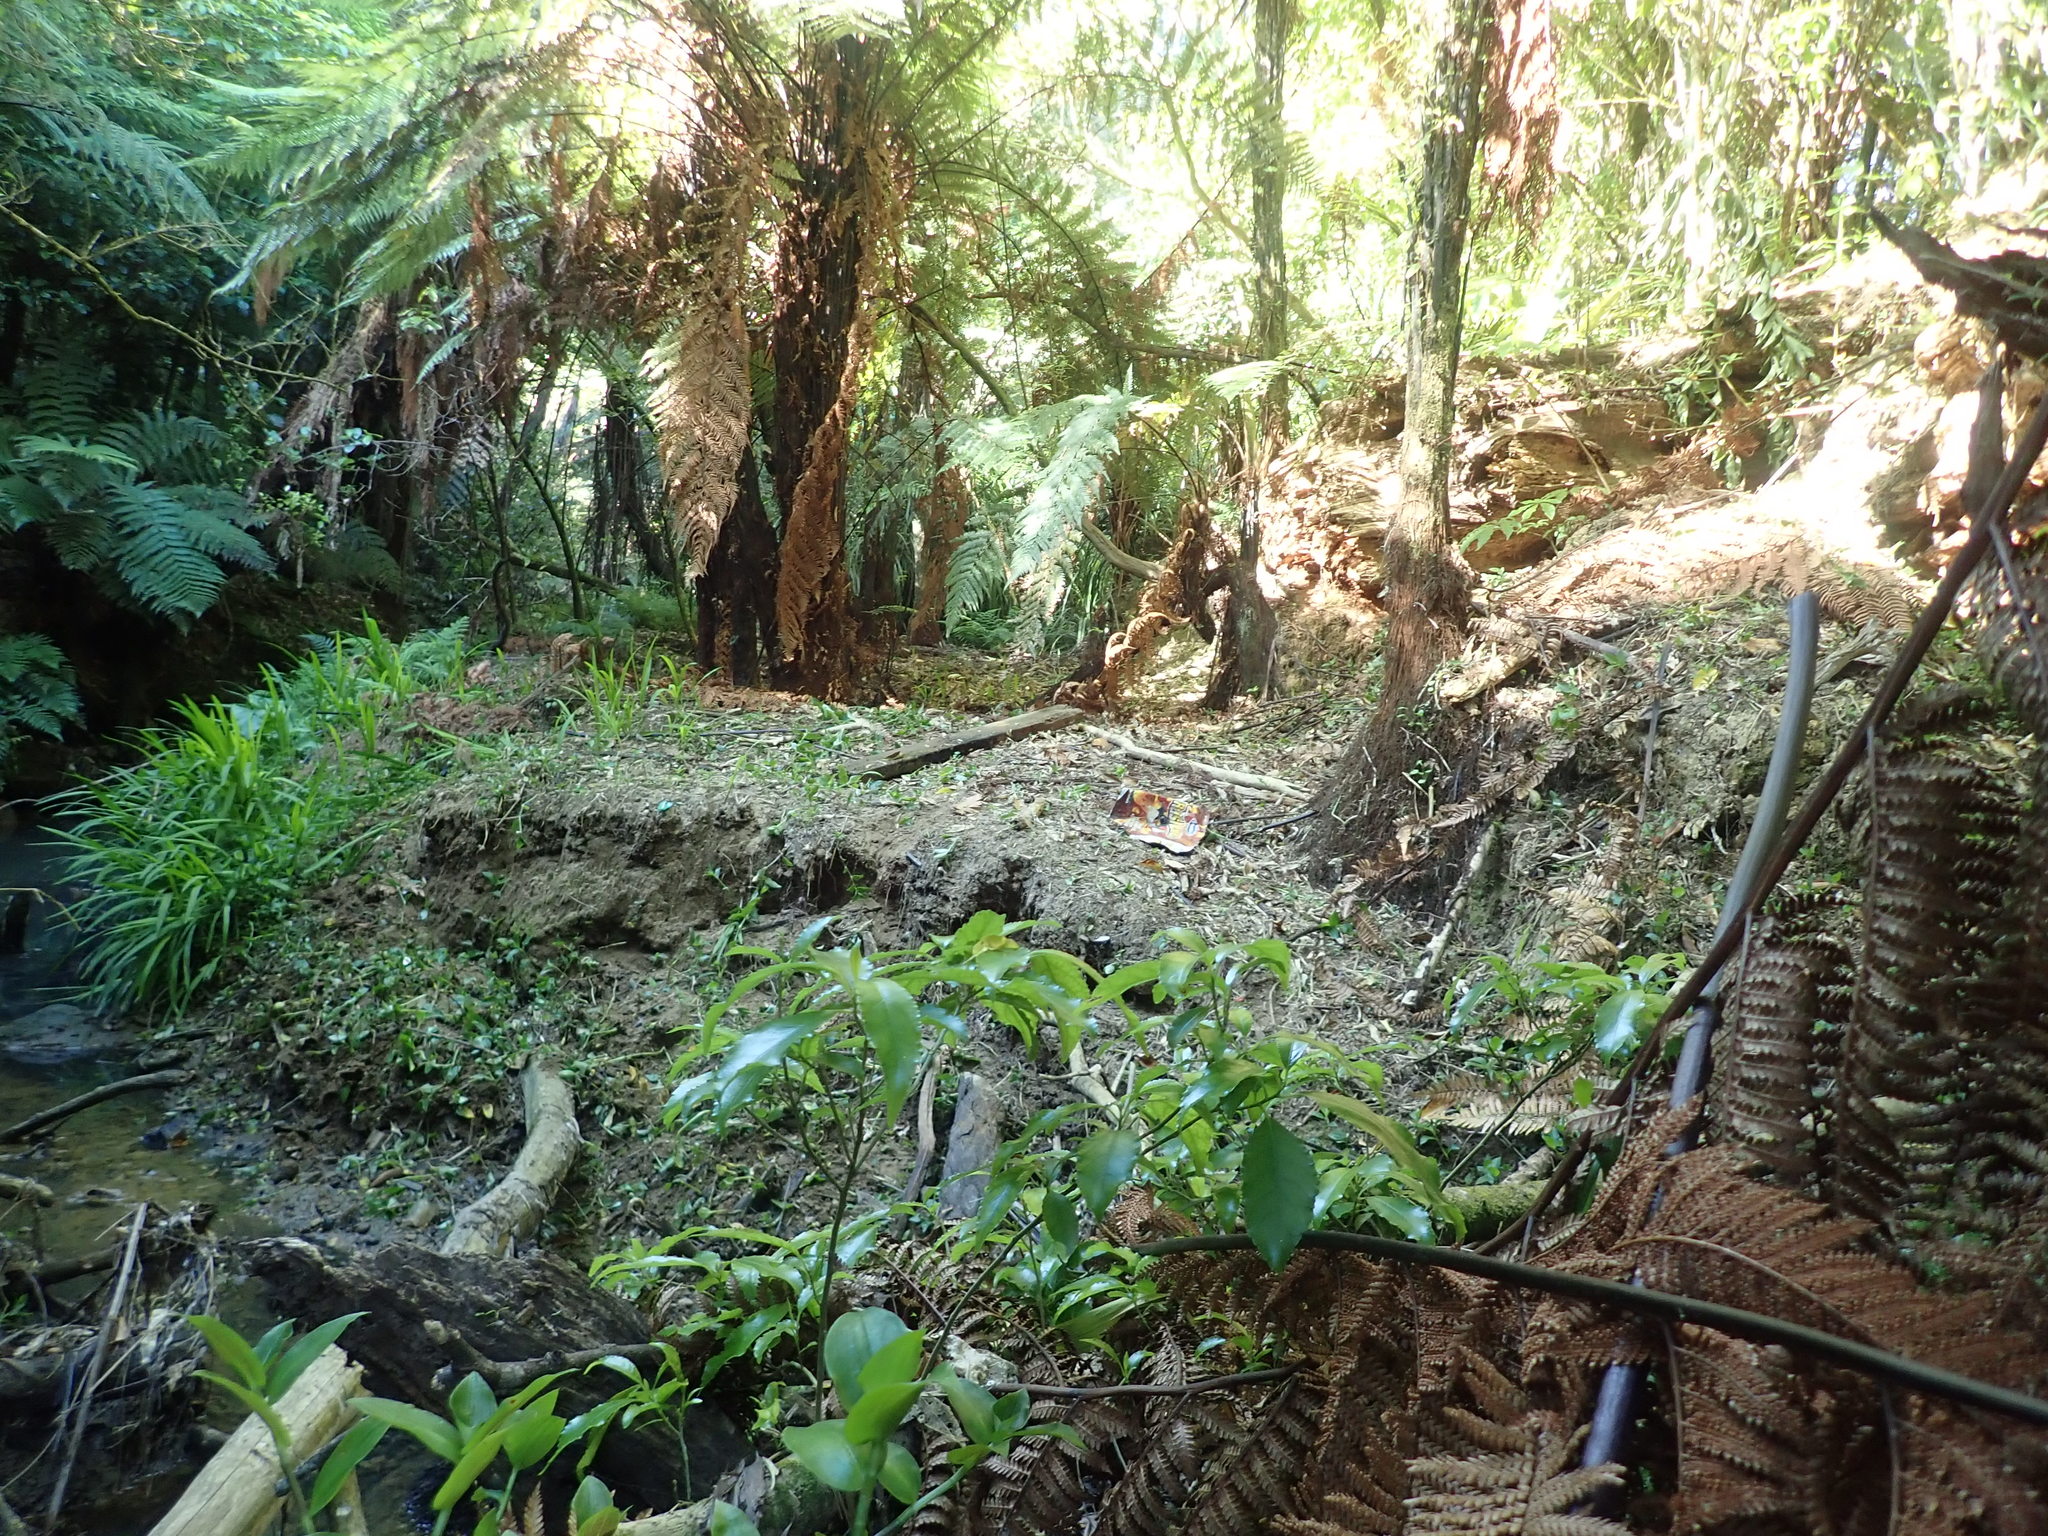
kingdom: Plantae
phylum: Tracheophyta
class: Magnoliopsida
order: Malpighiales
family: Violaceae
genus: Melicytus
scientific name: Melicytus ramiflorus
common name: Mahoe
